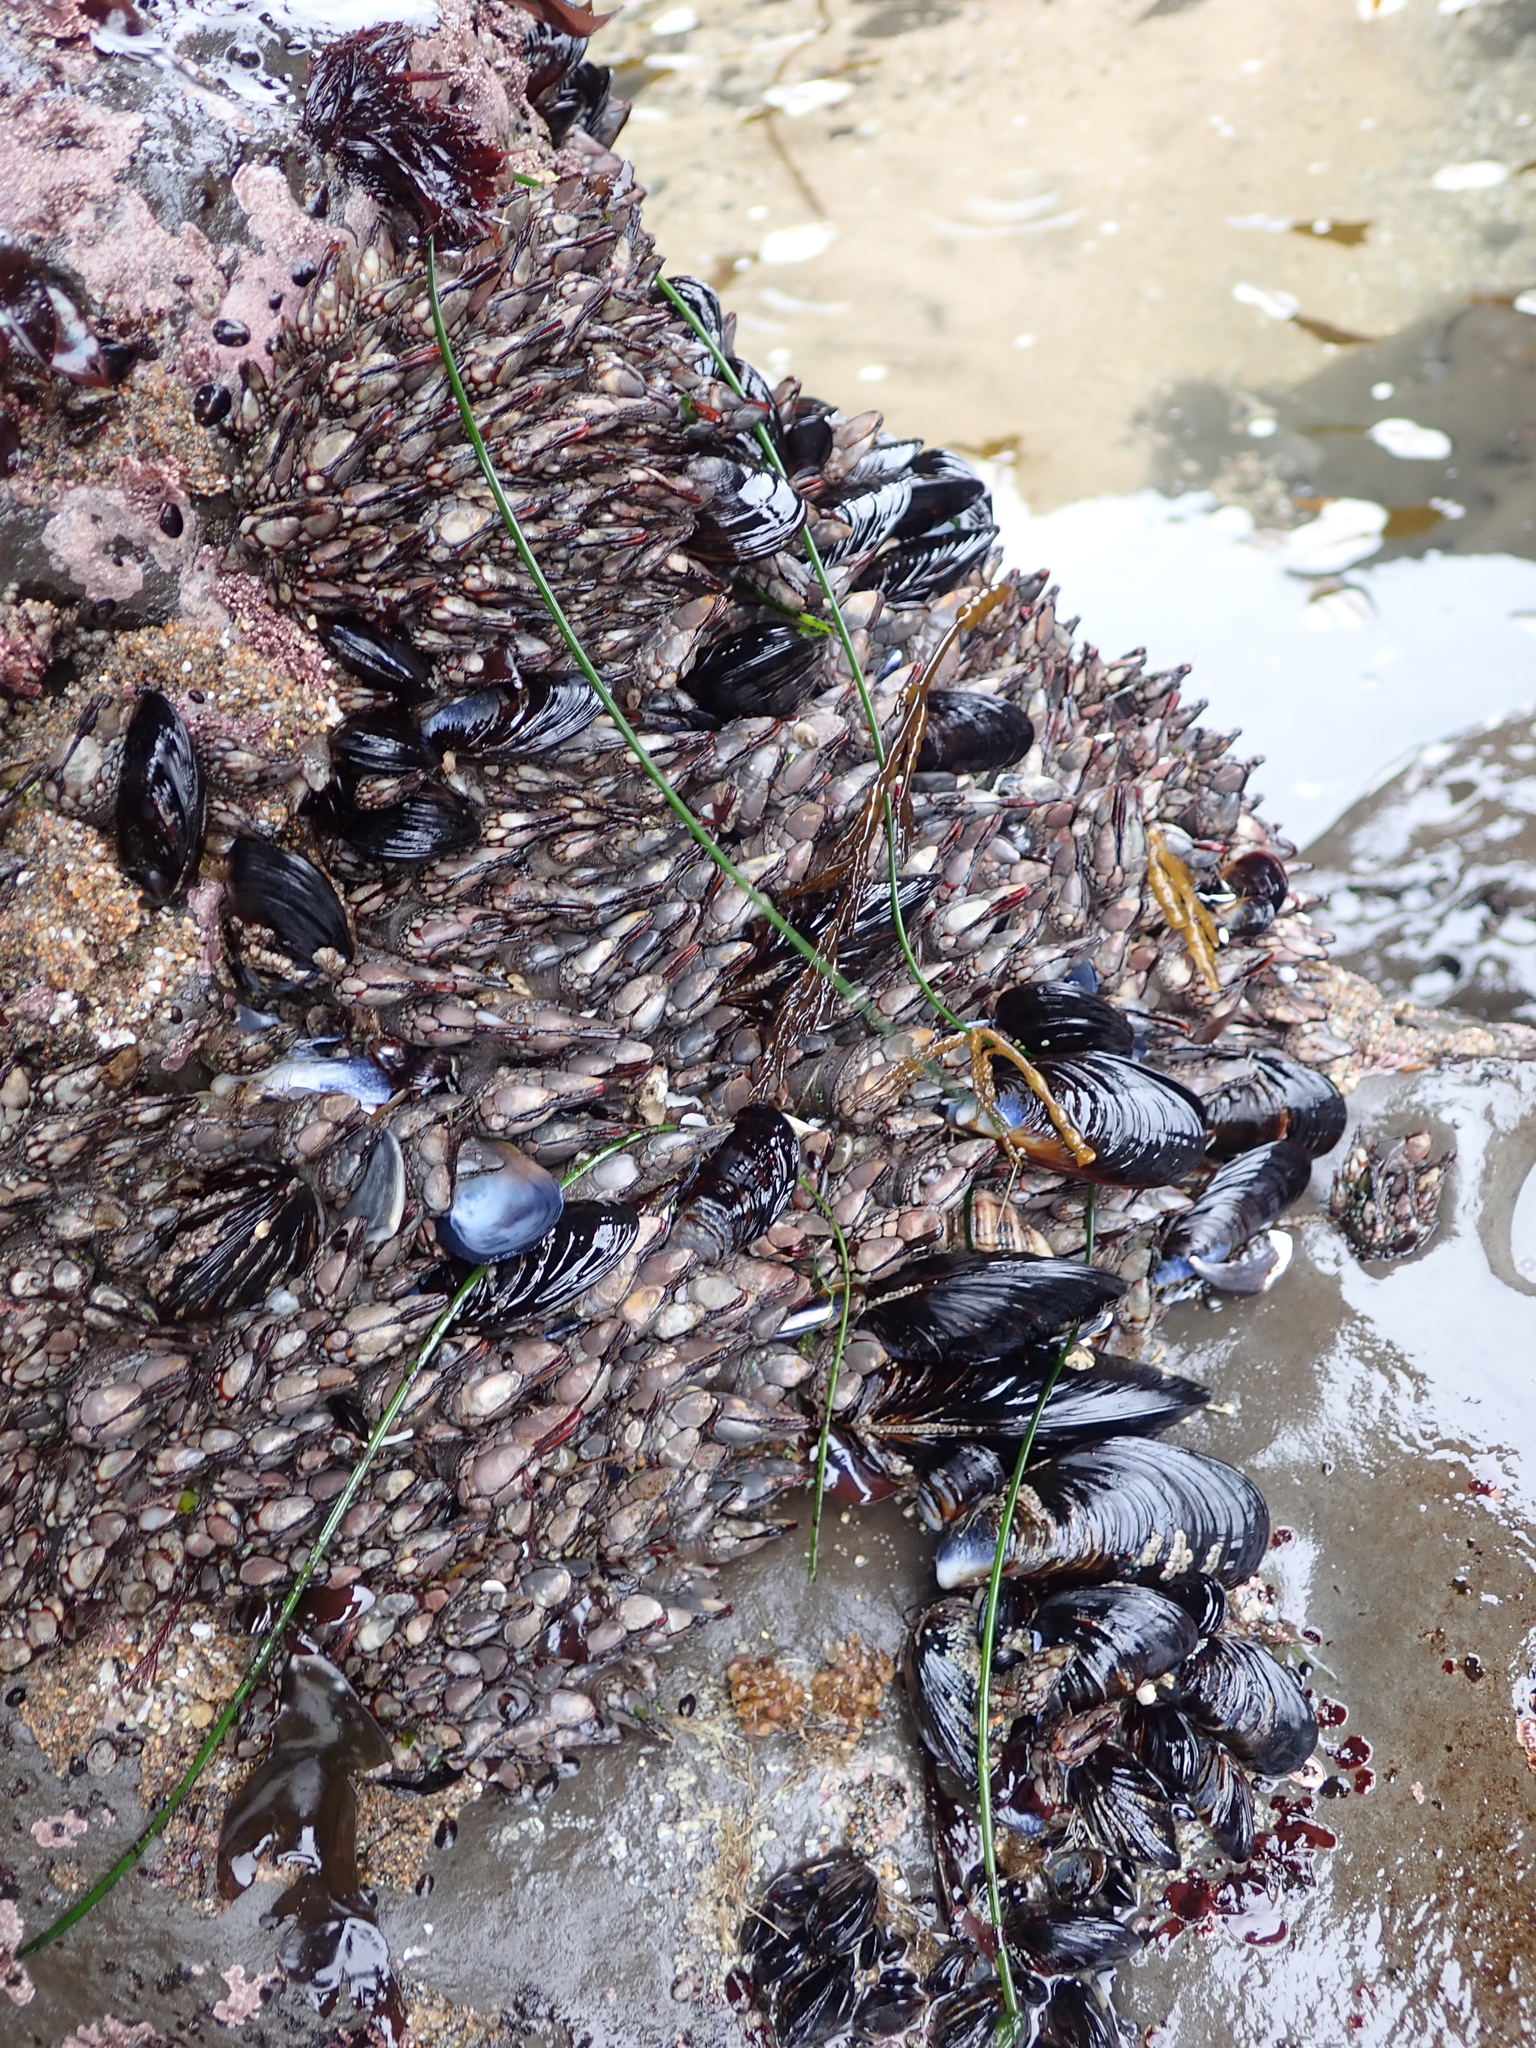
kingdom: Animalia
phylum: Arthropoda
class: Maxillopoda
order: Pedunculata
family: Pollicipedidae
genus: Pollicipes
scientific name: Pollicipes polymerus
